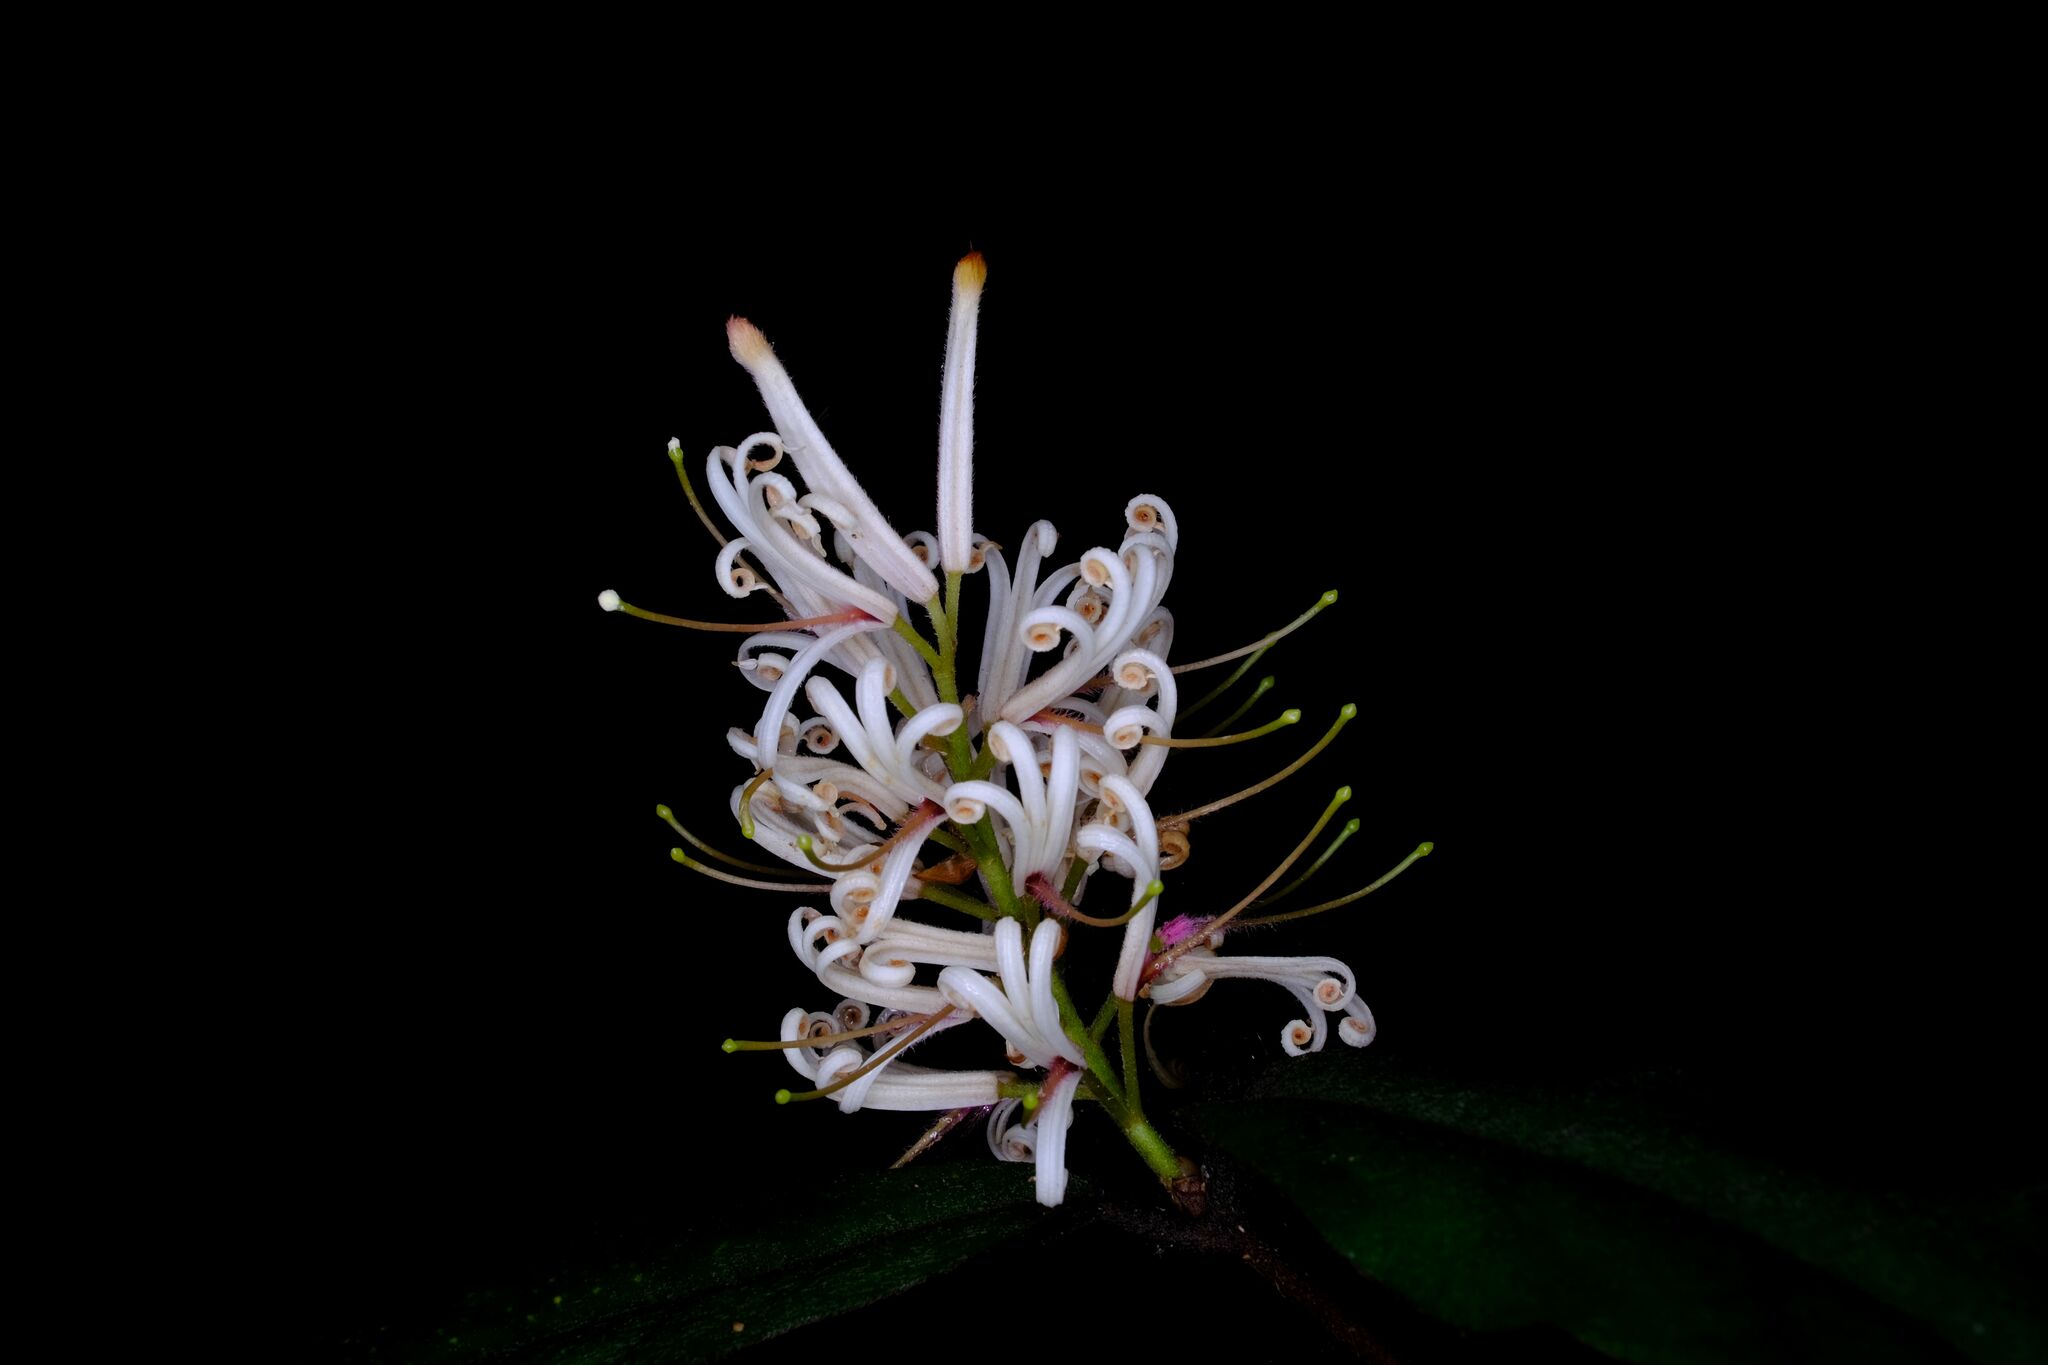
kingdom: Plantae
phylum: Tracheophyta
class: Magnoliopsida
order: Proteales
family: Proteaceae
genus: Triunia
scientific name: Triunia youngiana
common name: Rednut
